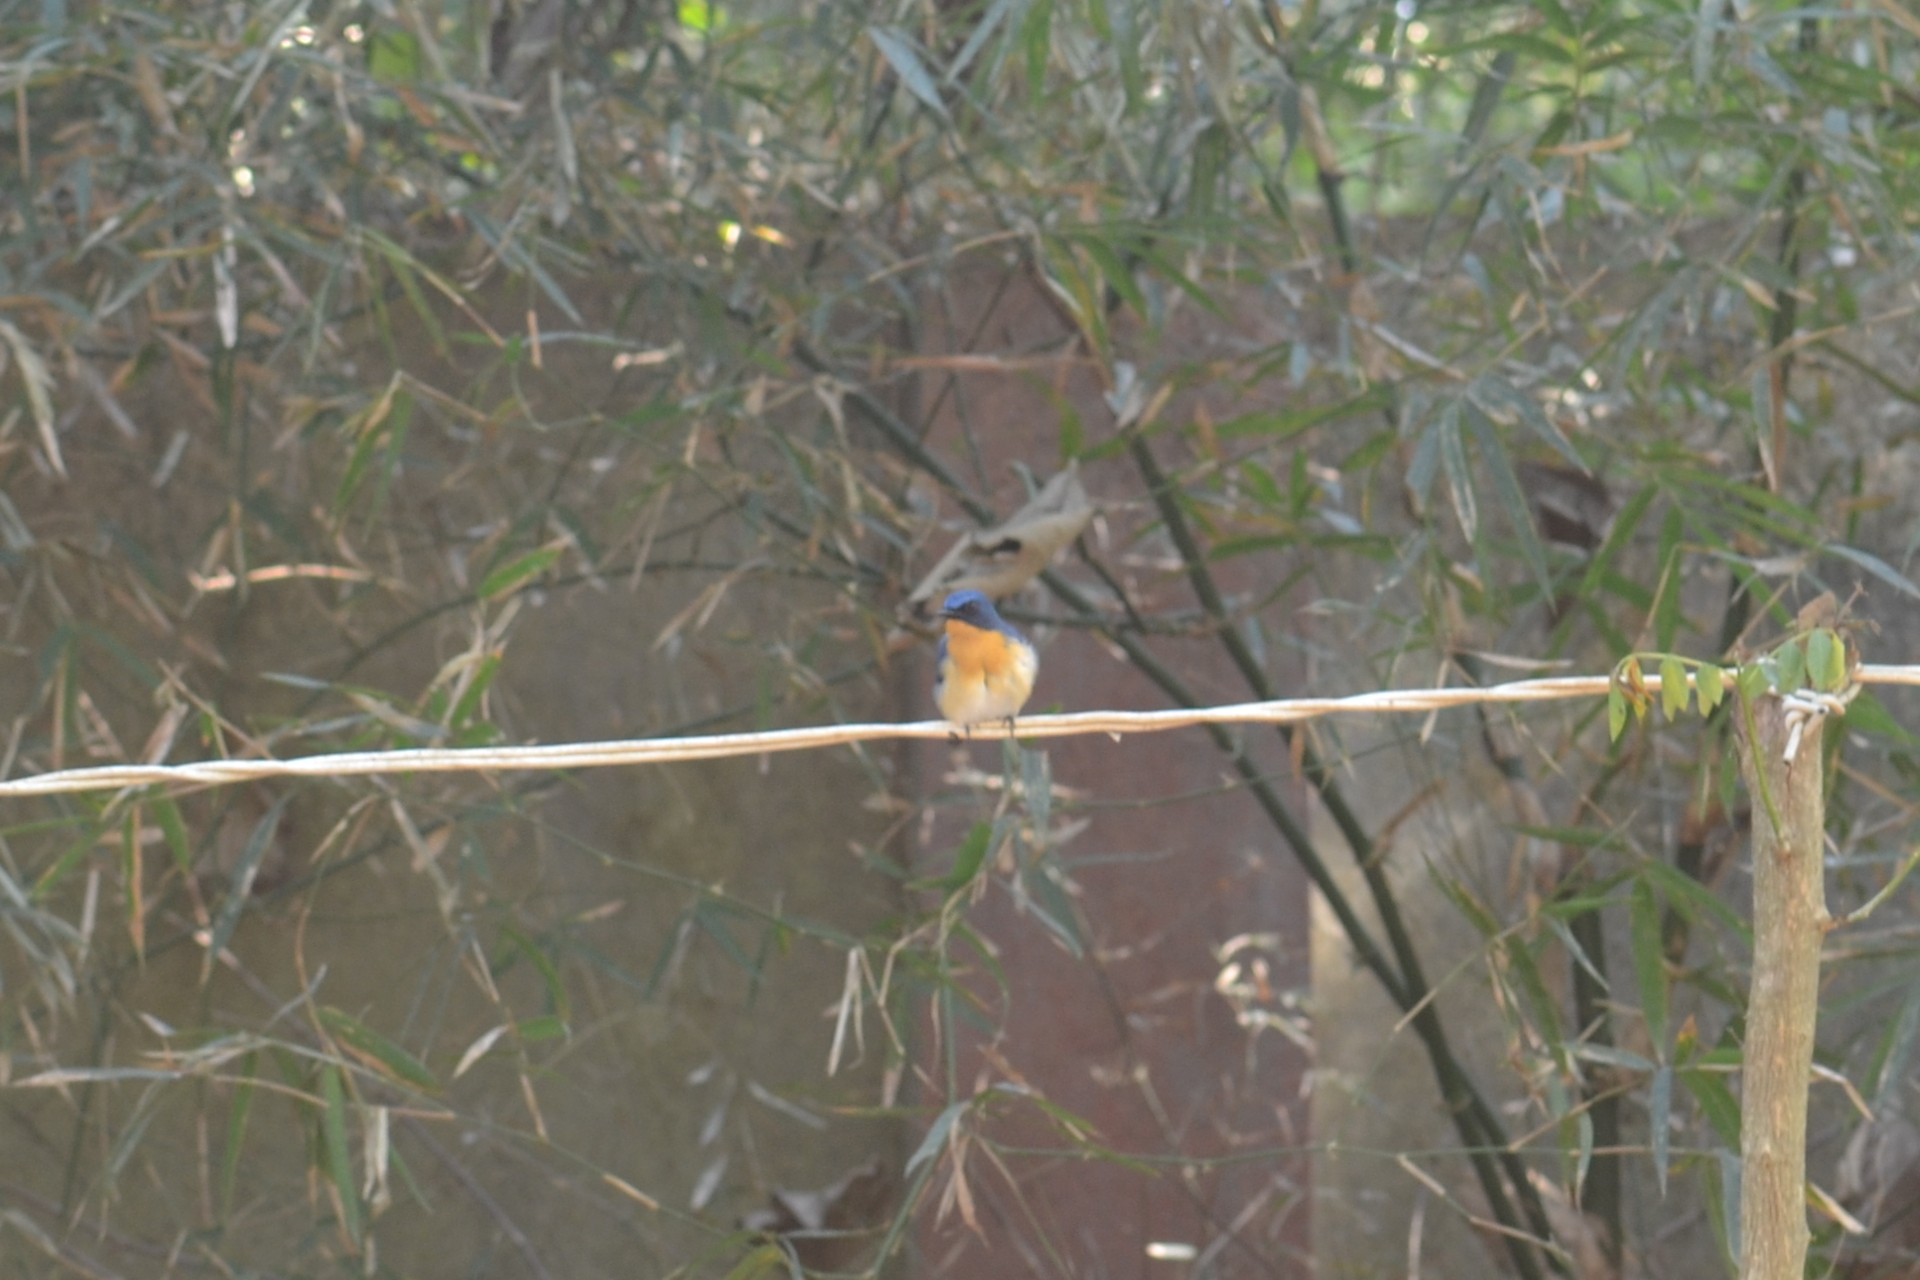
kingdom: Animalia
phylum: Chordata
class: Aves
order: Passeriformes
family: Muscicapidae
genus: Cyornis
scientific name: Cyornis tickelliae
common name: Tickell's blue flycatcher
